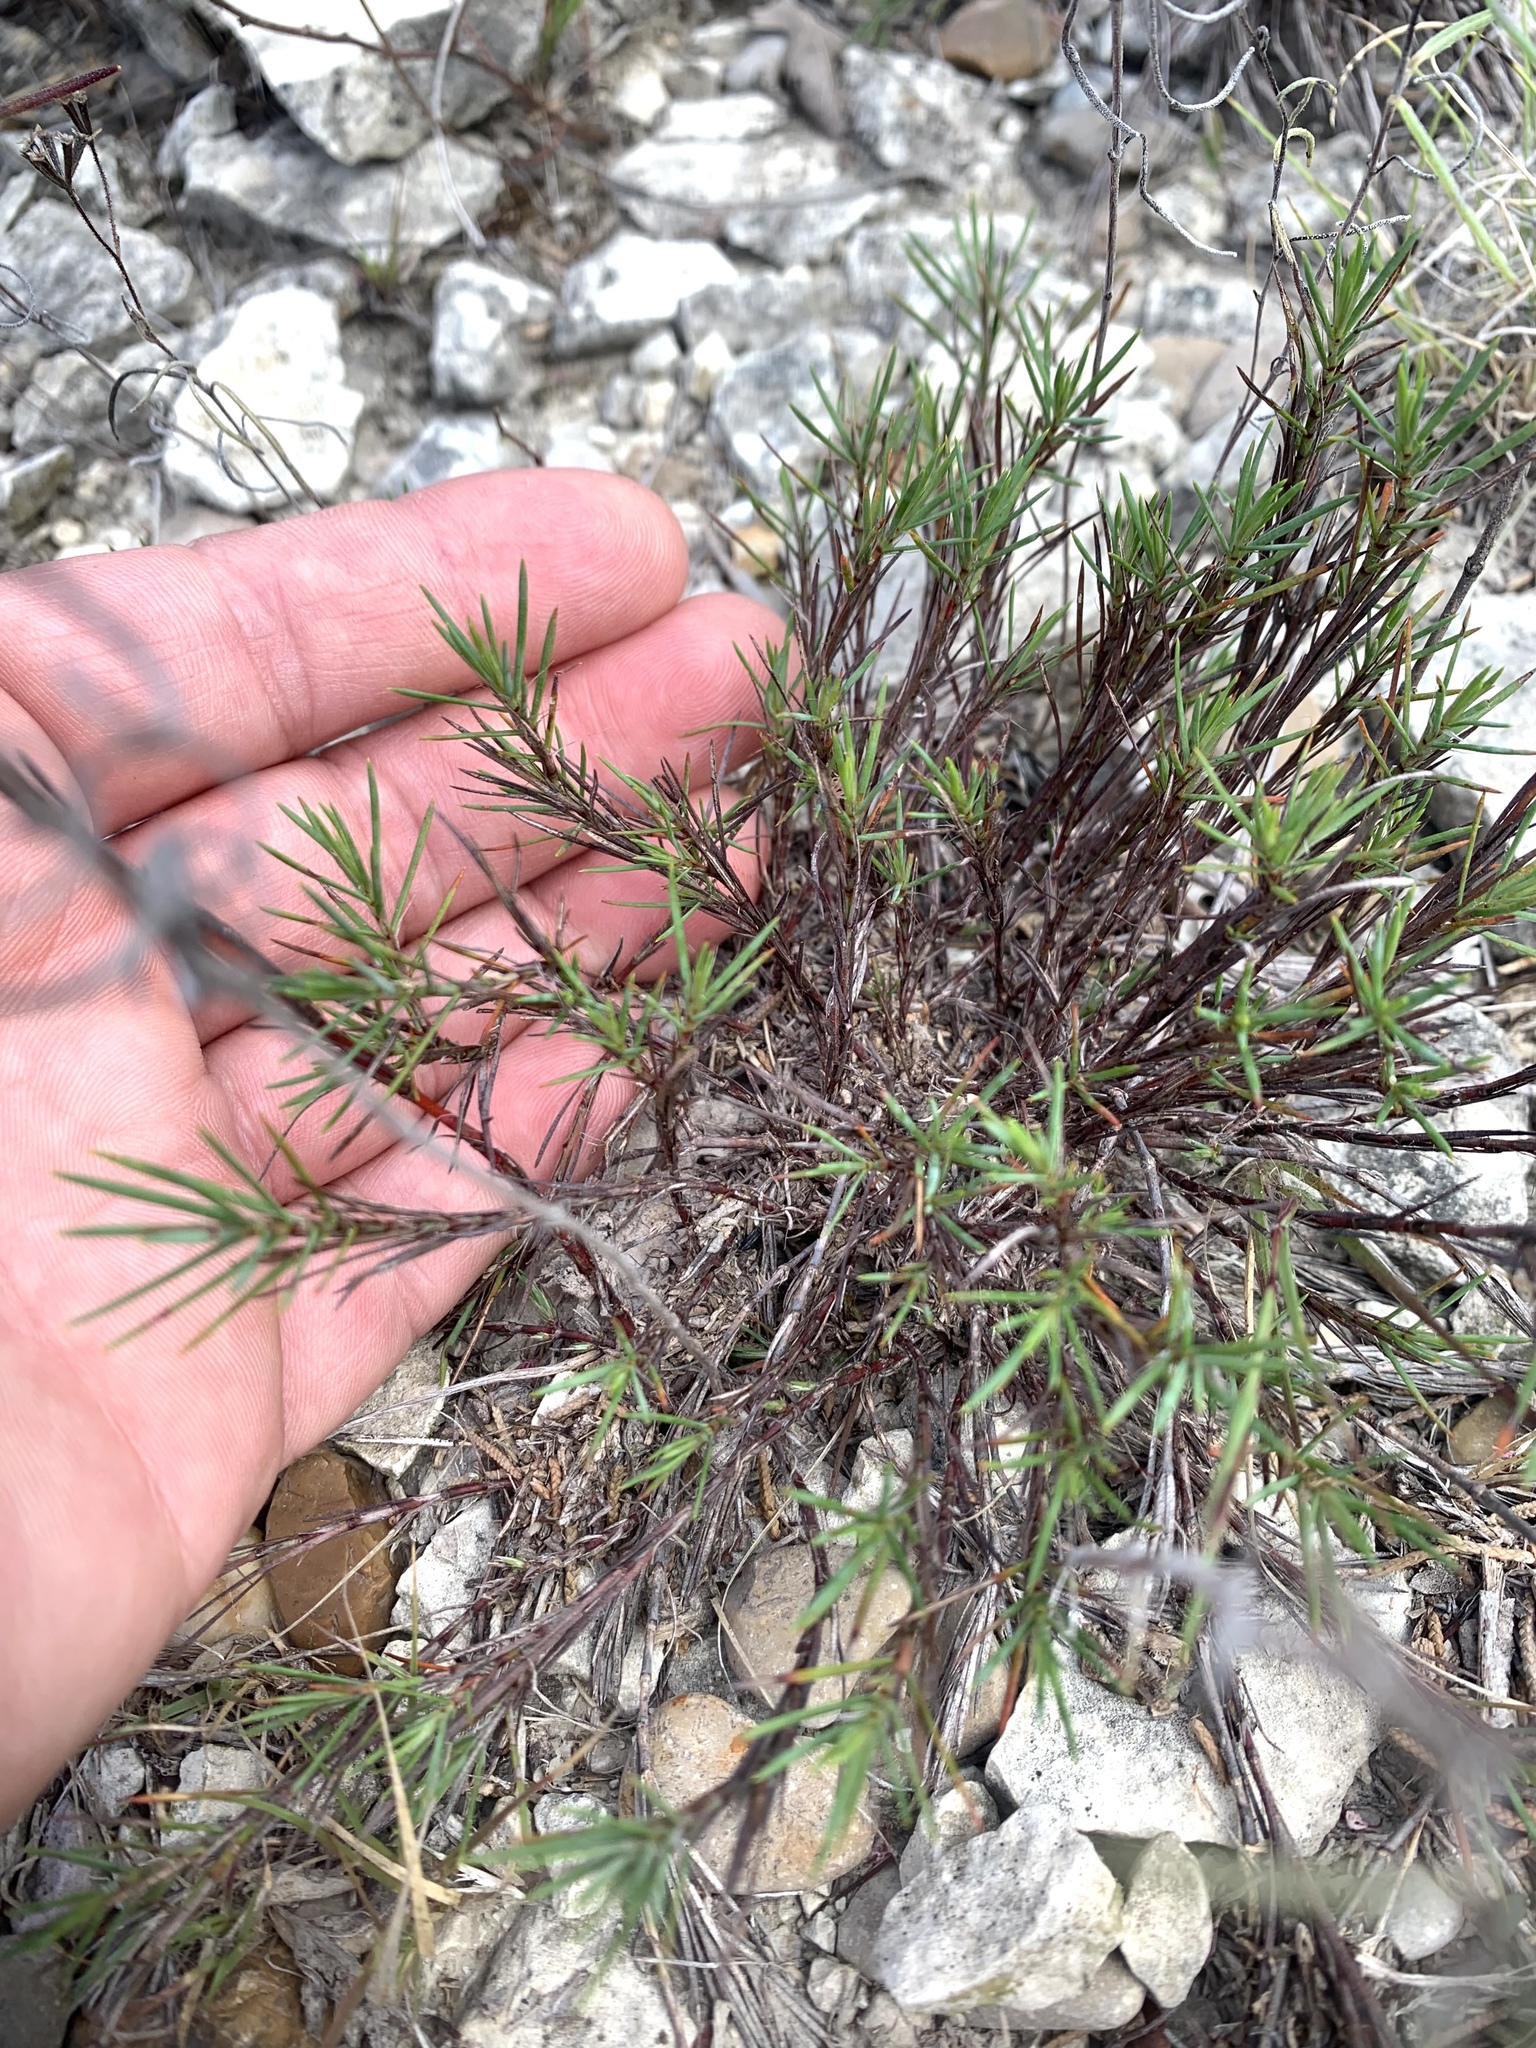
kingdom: Plantae
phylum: Tracheophyta
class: Magnoliopsida
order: Caryophyllales
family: Caryophyllaceae
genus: Paronychia
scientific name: Paronychia virginica
